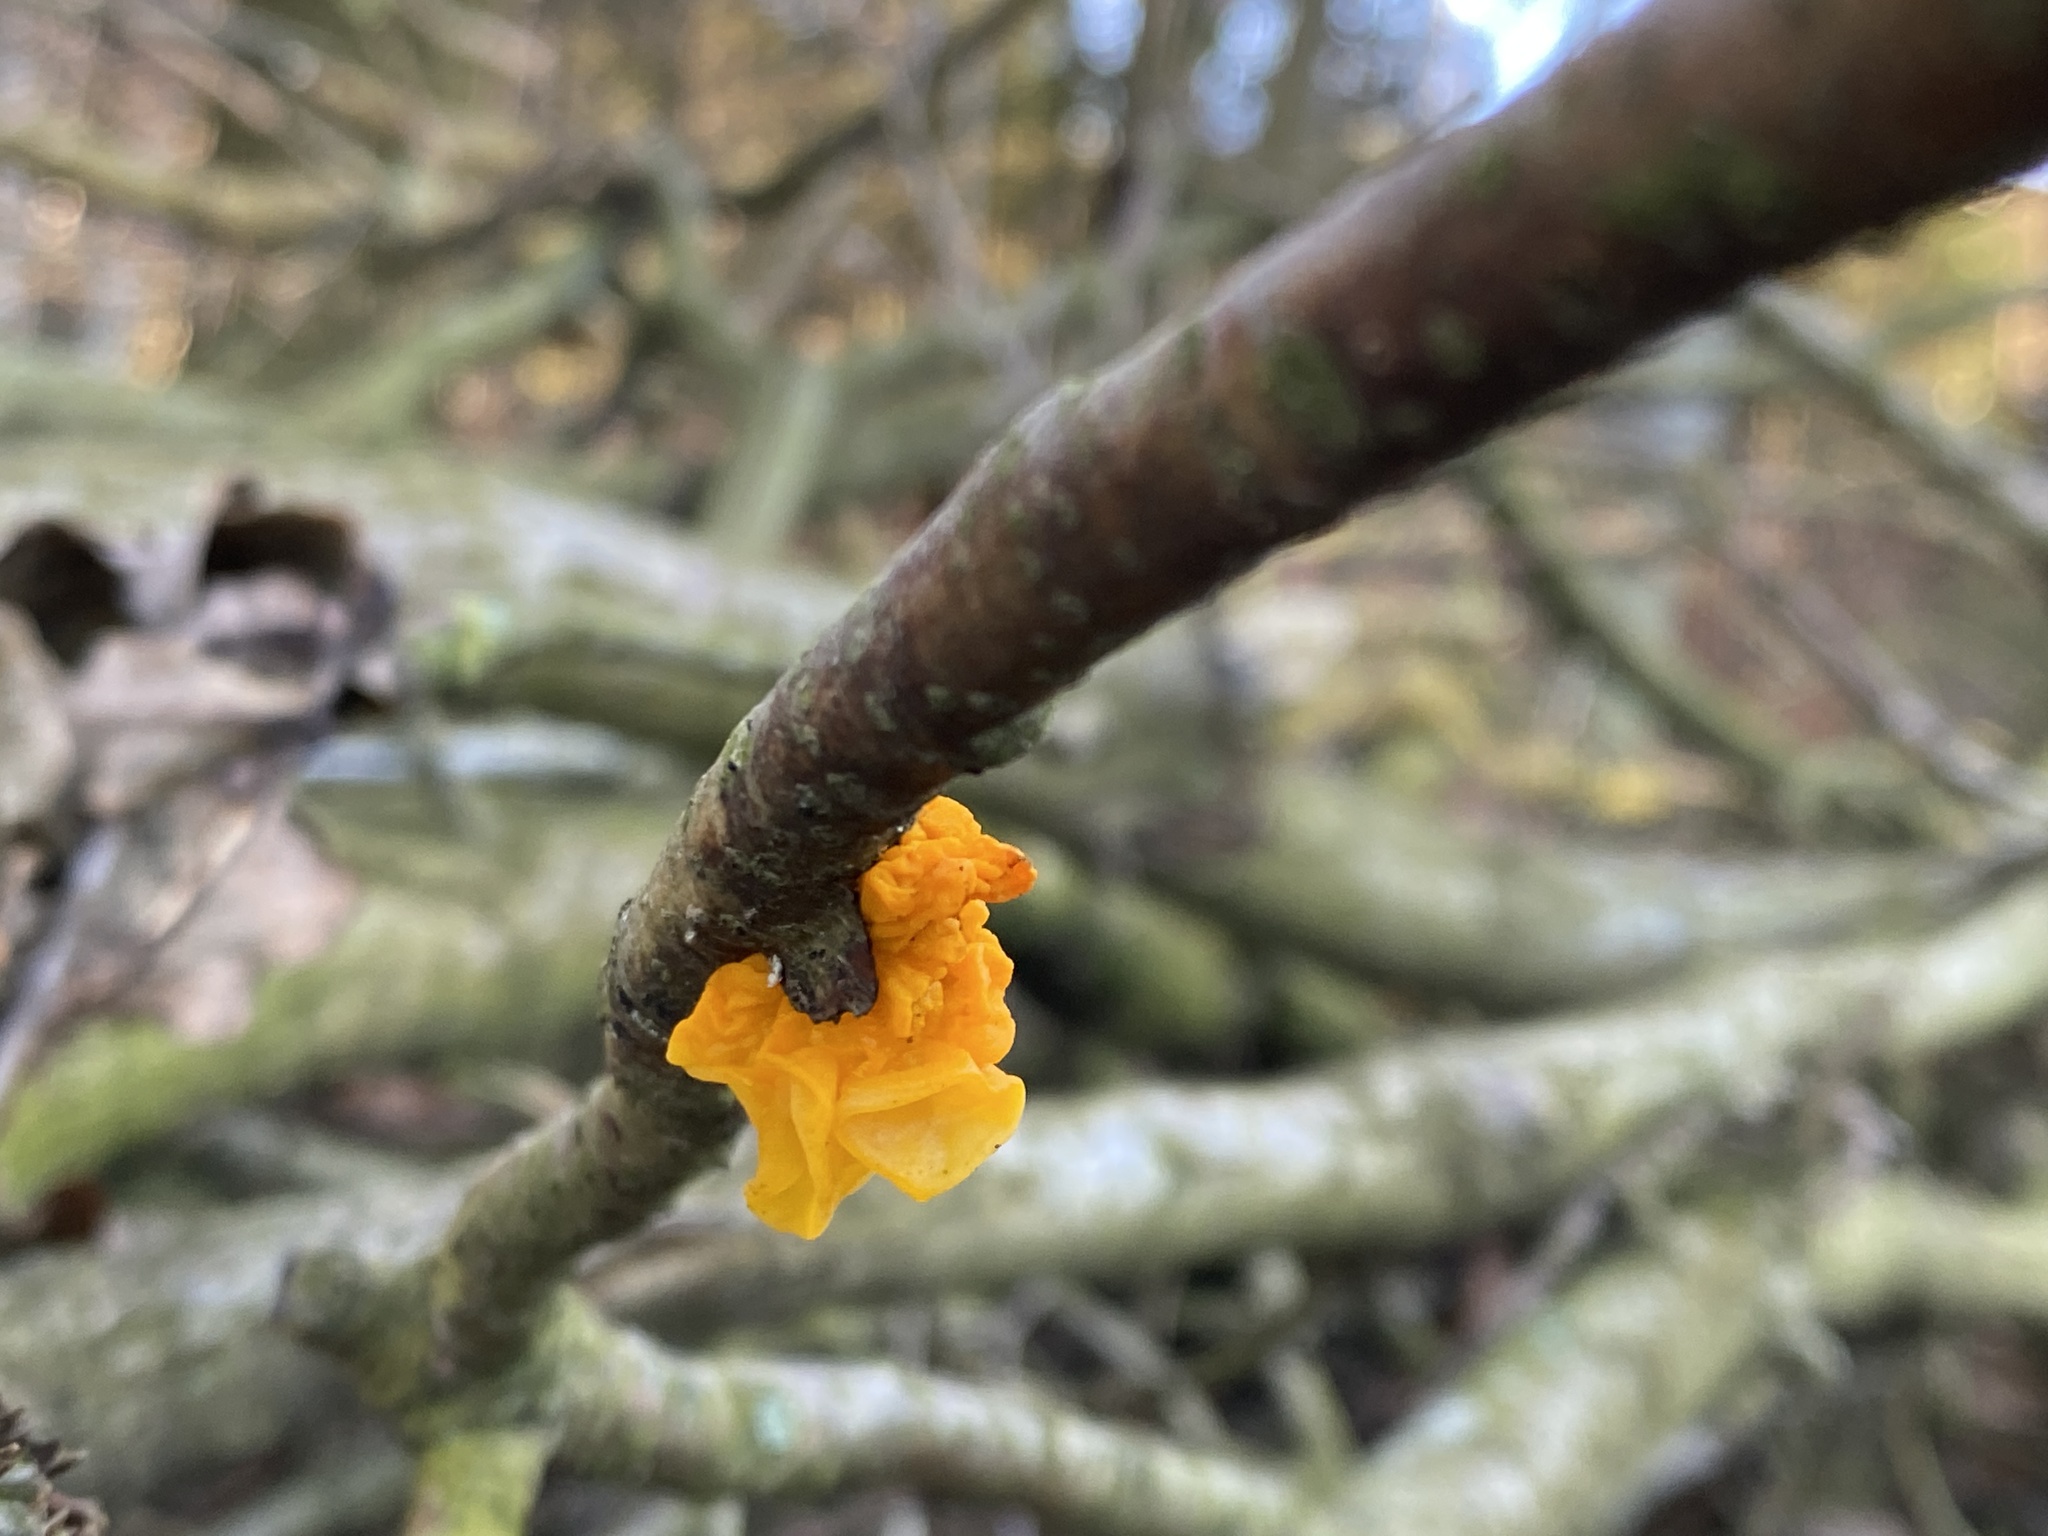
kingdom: Fungi
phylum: Basidiomycota
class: Tremellomycetes
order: Tremellales
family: Tremellaceae
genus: Tremella
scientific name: Tremella mesenterica
